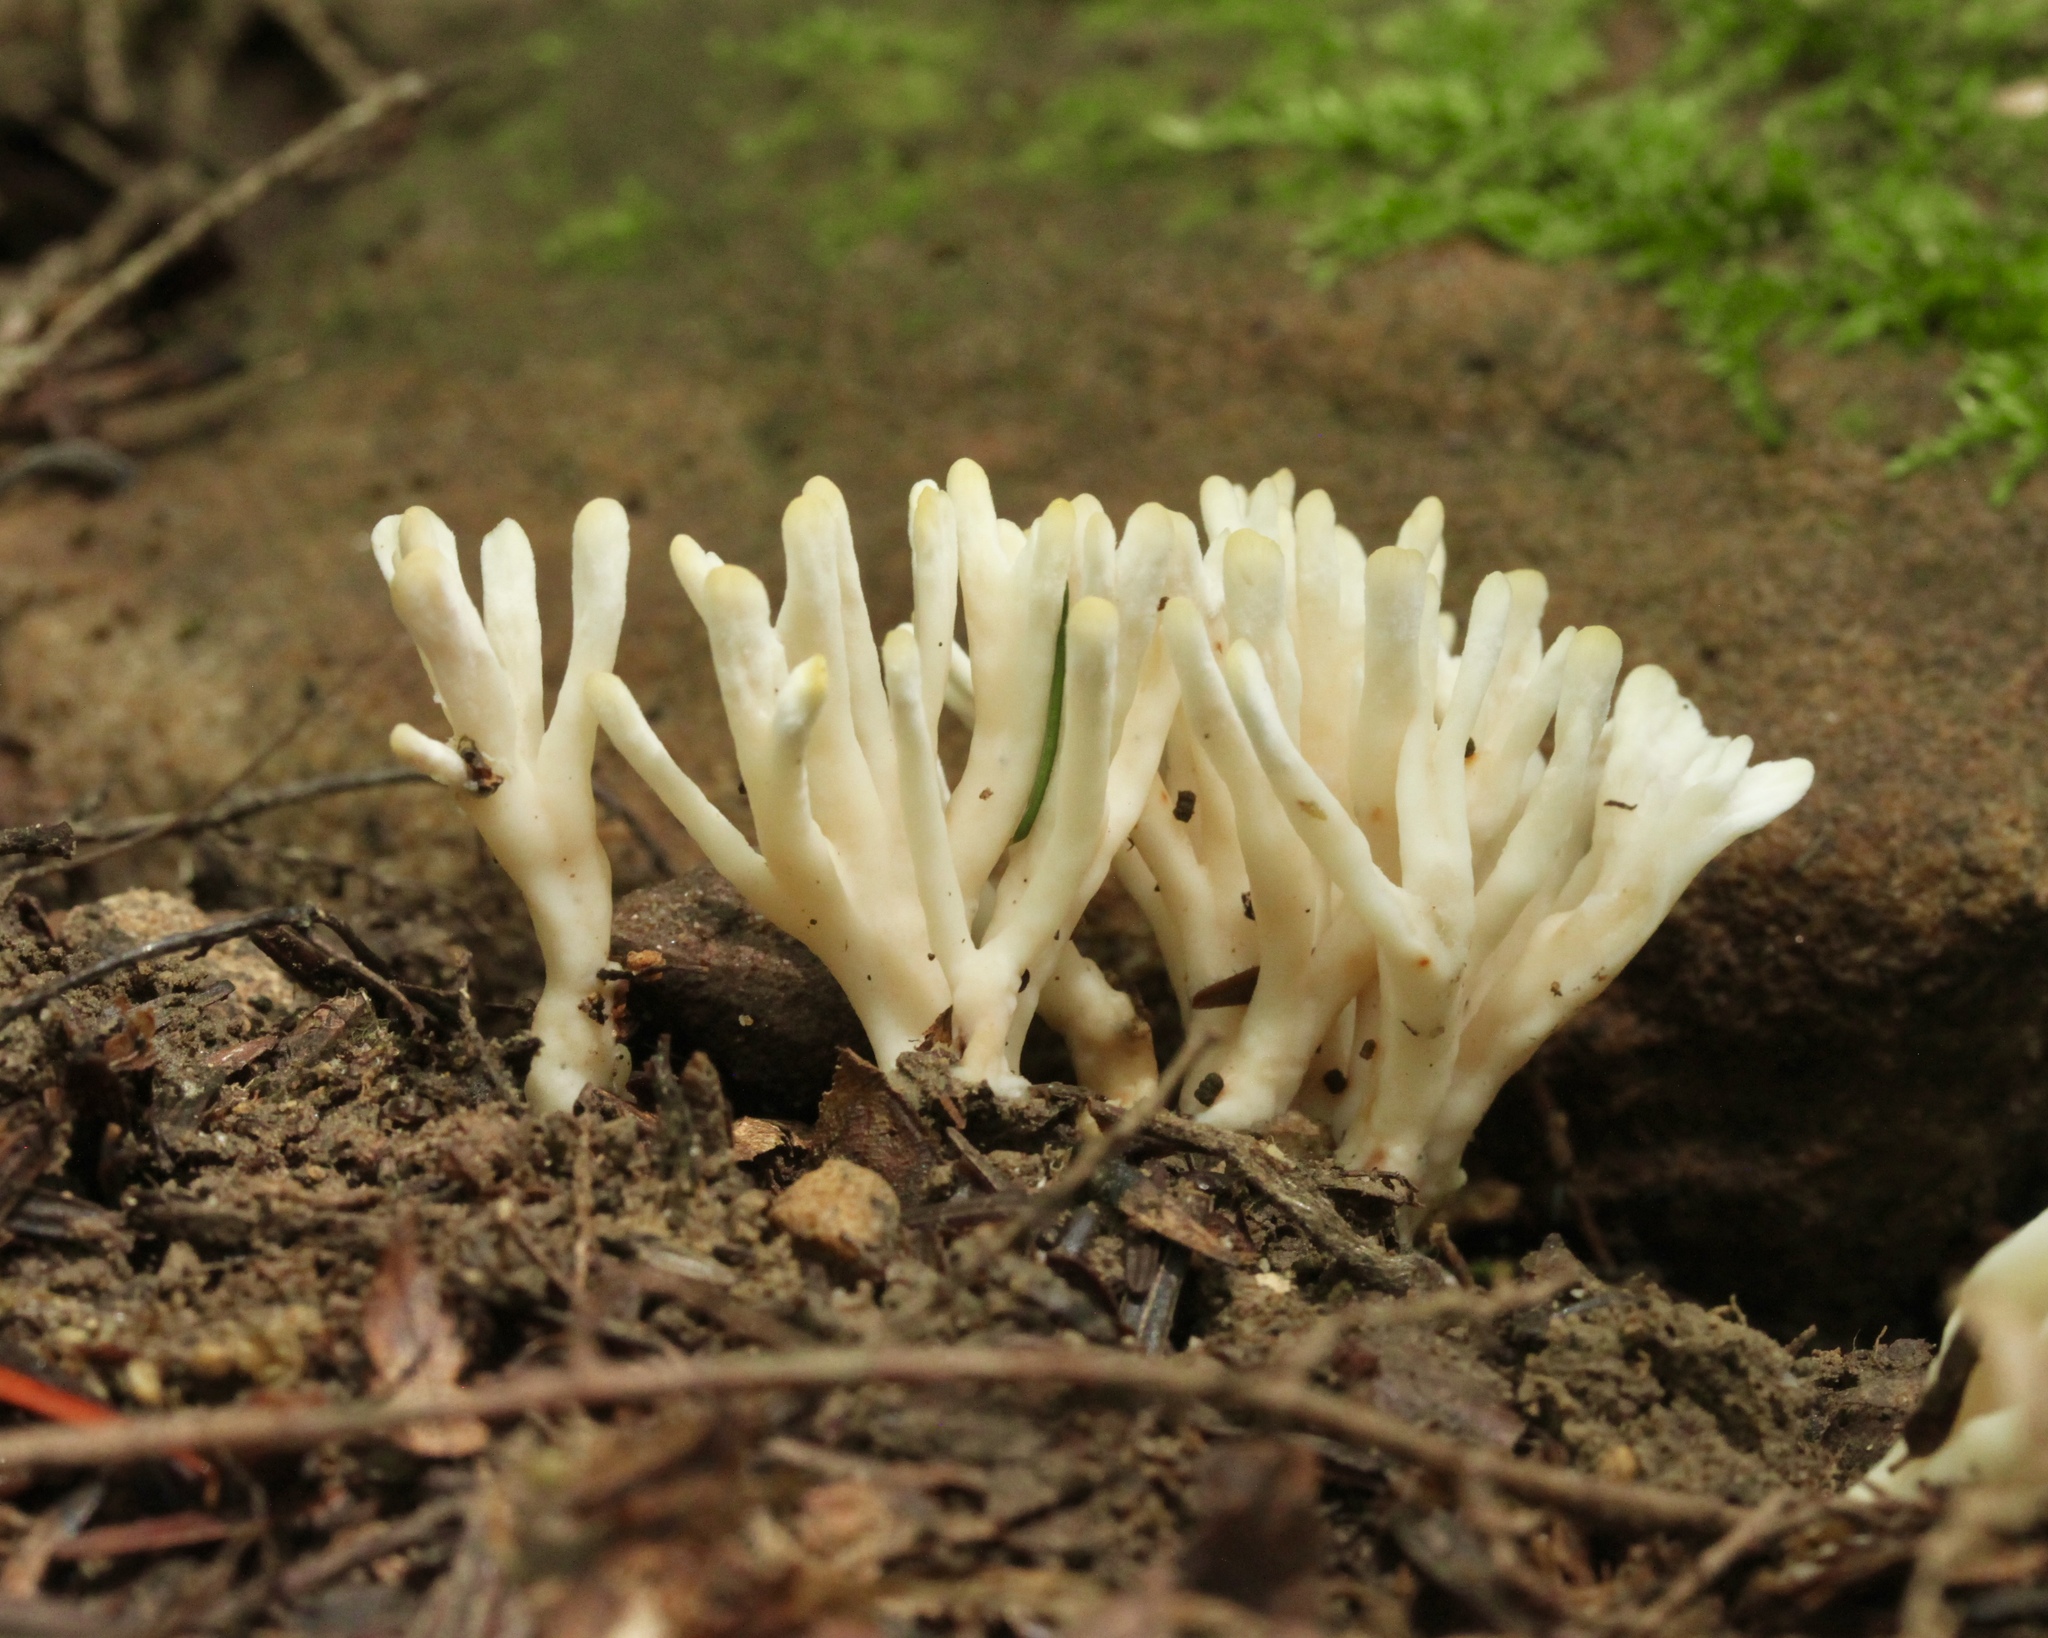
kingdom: Fungi
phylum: Basidiomycota
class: Agaricomycetes
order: Sebacinales
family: Sebacinaceae
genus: Sebacina
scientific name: Sebacina schweinitzii
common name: Jellied false coral fungus
